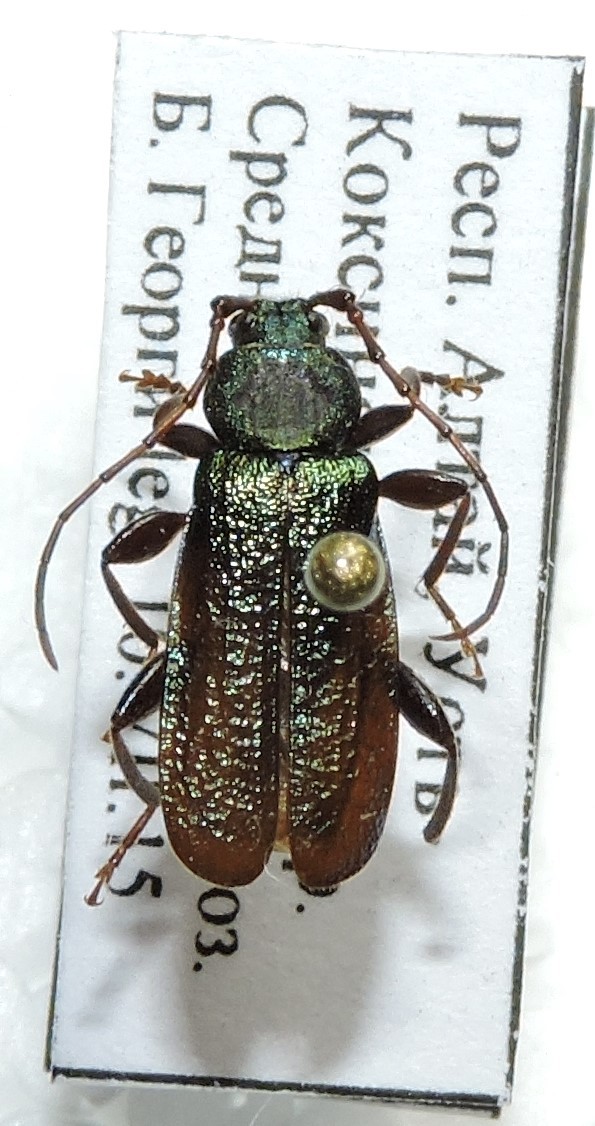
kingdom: Animalia
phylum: Arthropoda
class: Insecta
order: Coleoptera
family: Cerambycidae
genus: Callidium
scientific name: Callidium aeneum
